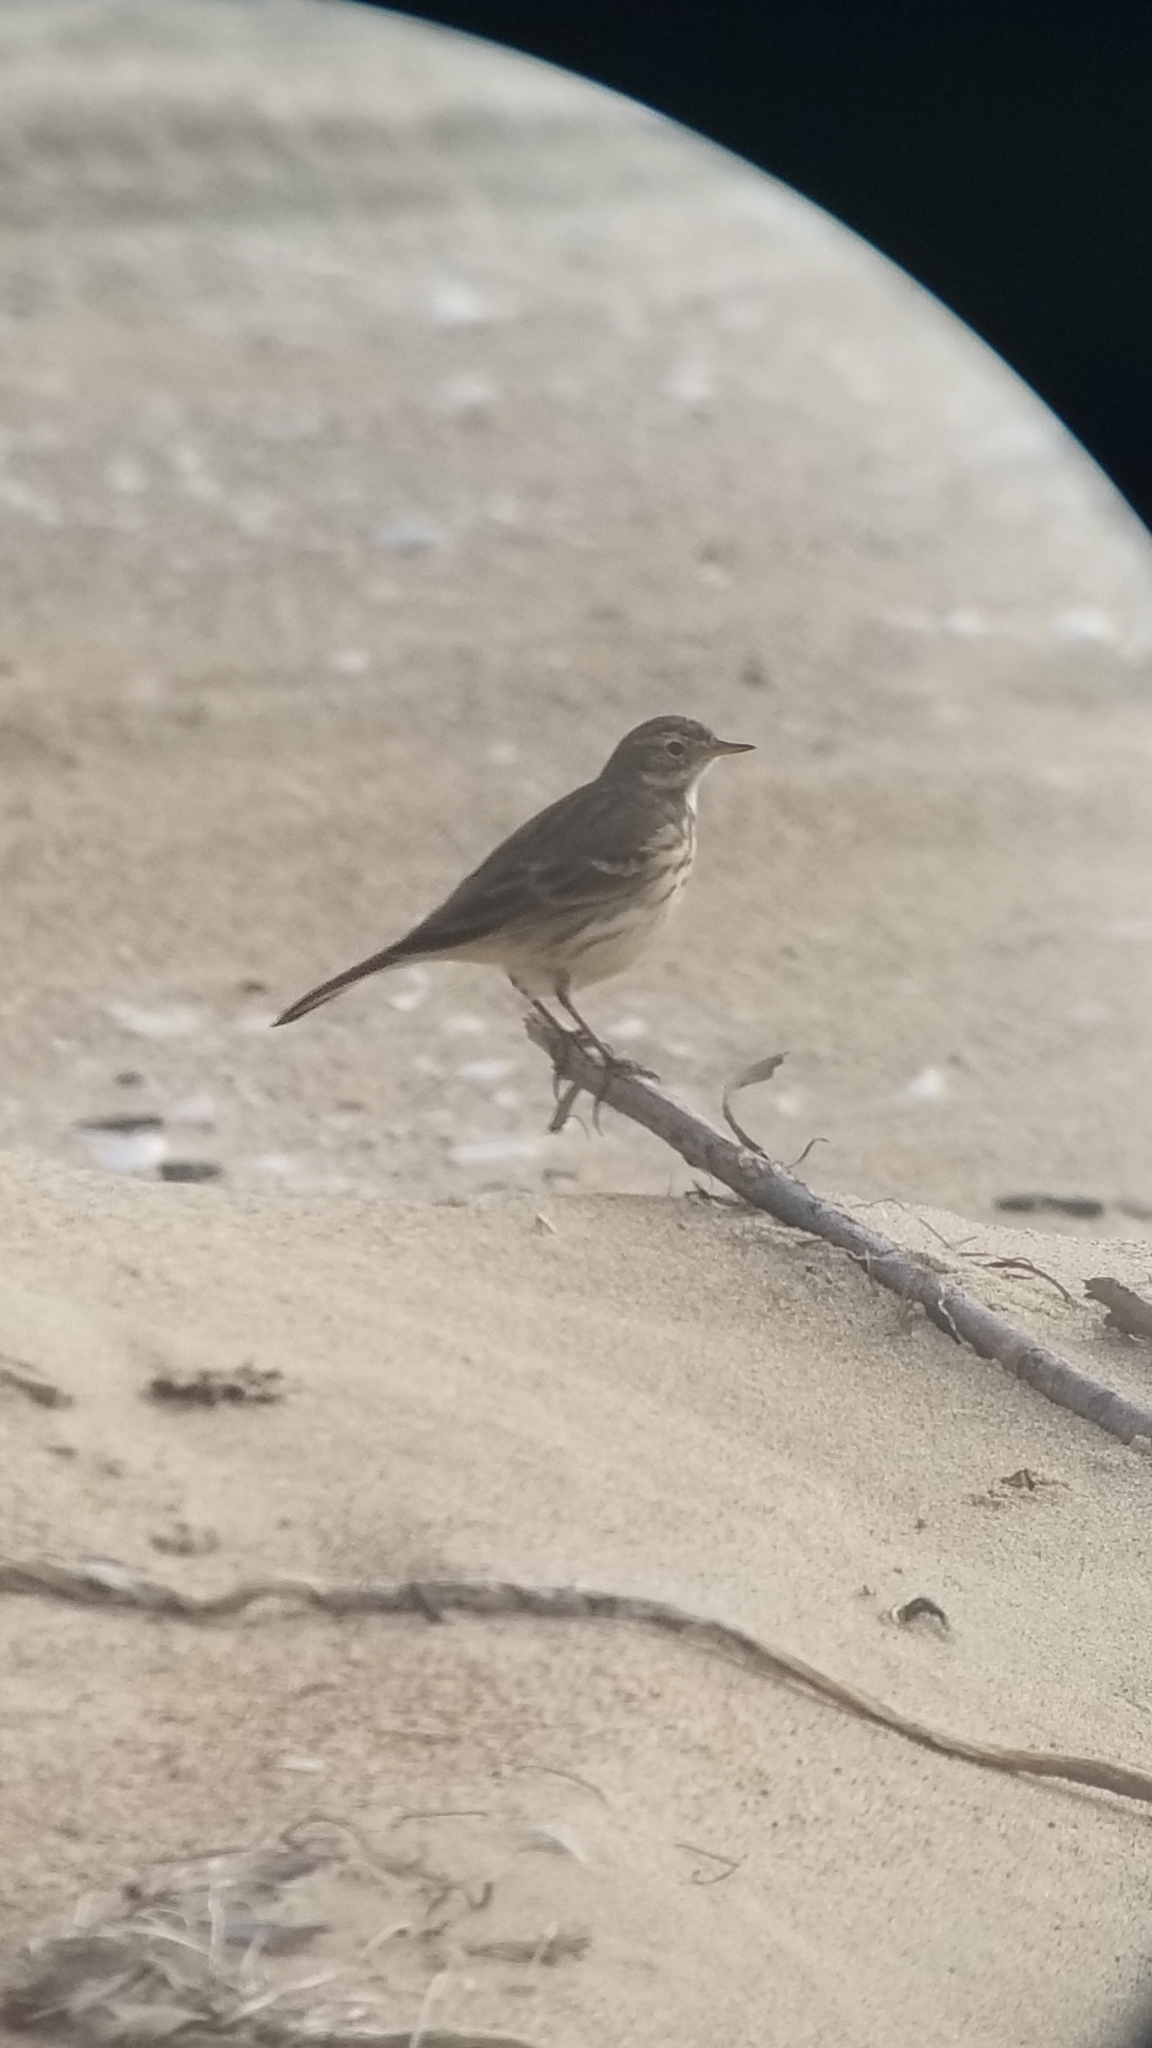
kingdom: Animalia
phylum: Chordata
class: Aves
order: Passeriformes
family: Motacillidae
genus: Anthus
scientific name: Anthus rubescens
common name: Buff-bellied pipit
